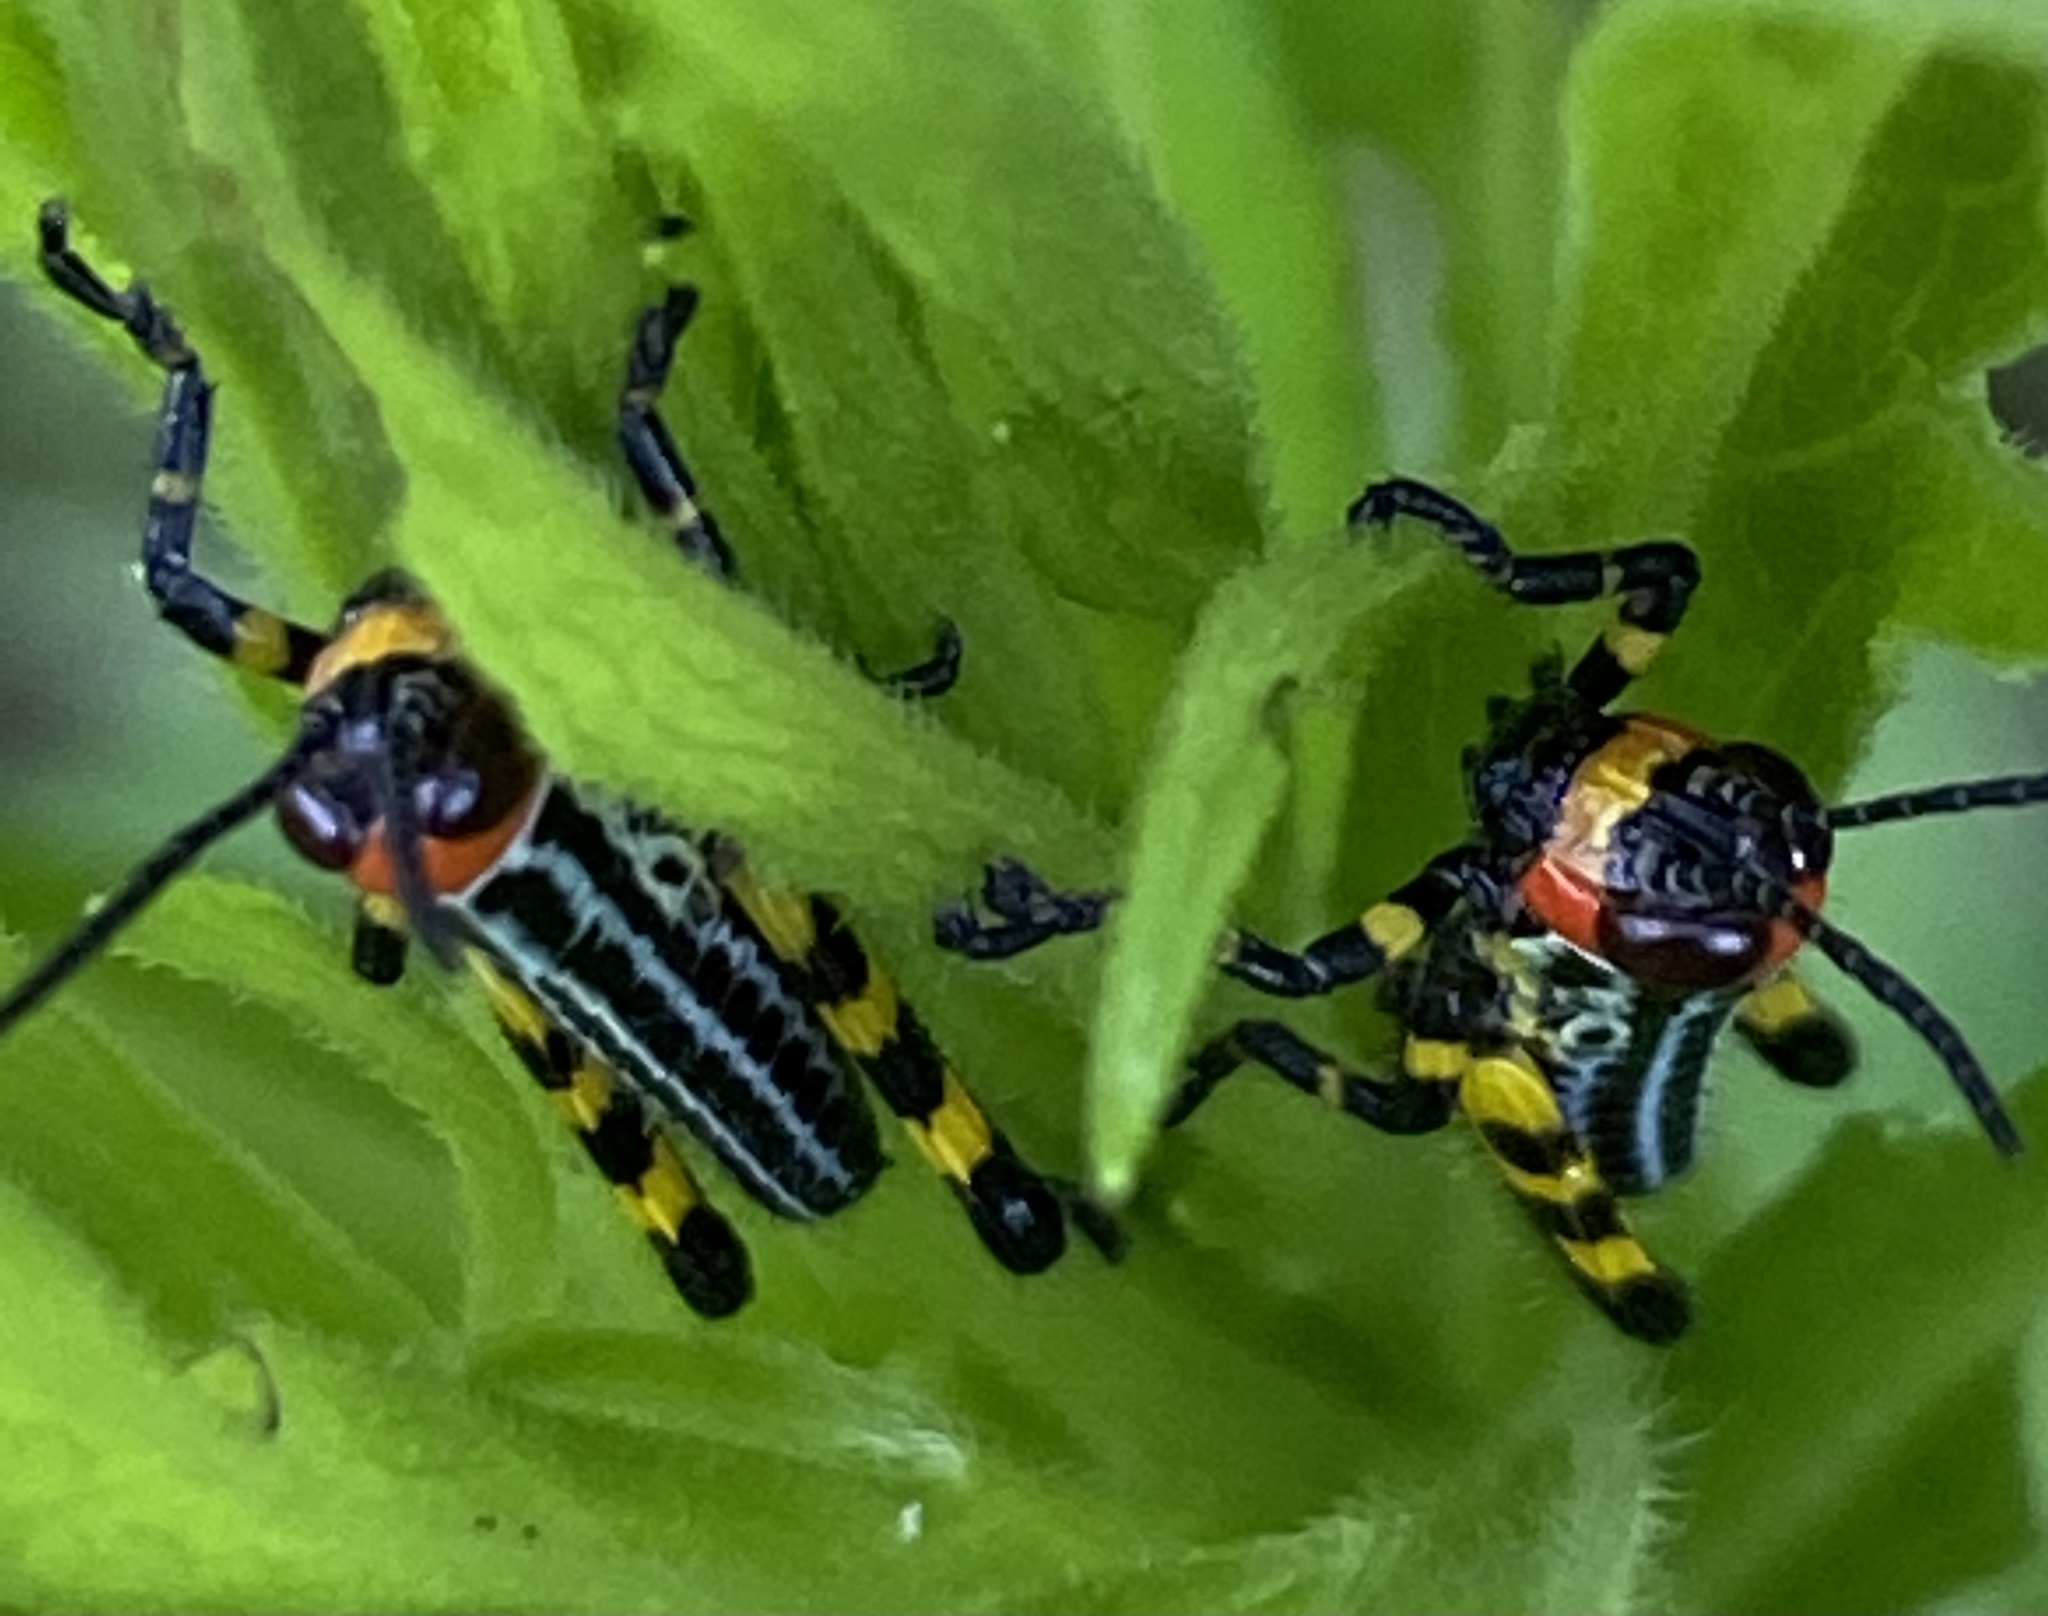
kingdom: Animalia
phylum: Arthropoda
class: Insecta
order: Orthoptera
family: Romaleidae
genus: Zoniopoda
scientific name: Zoniopoda tarsata
